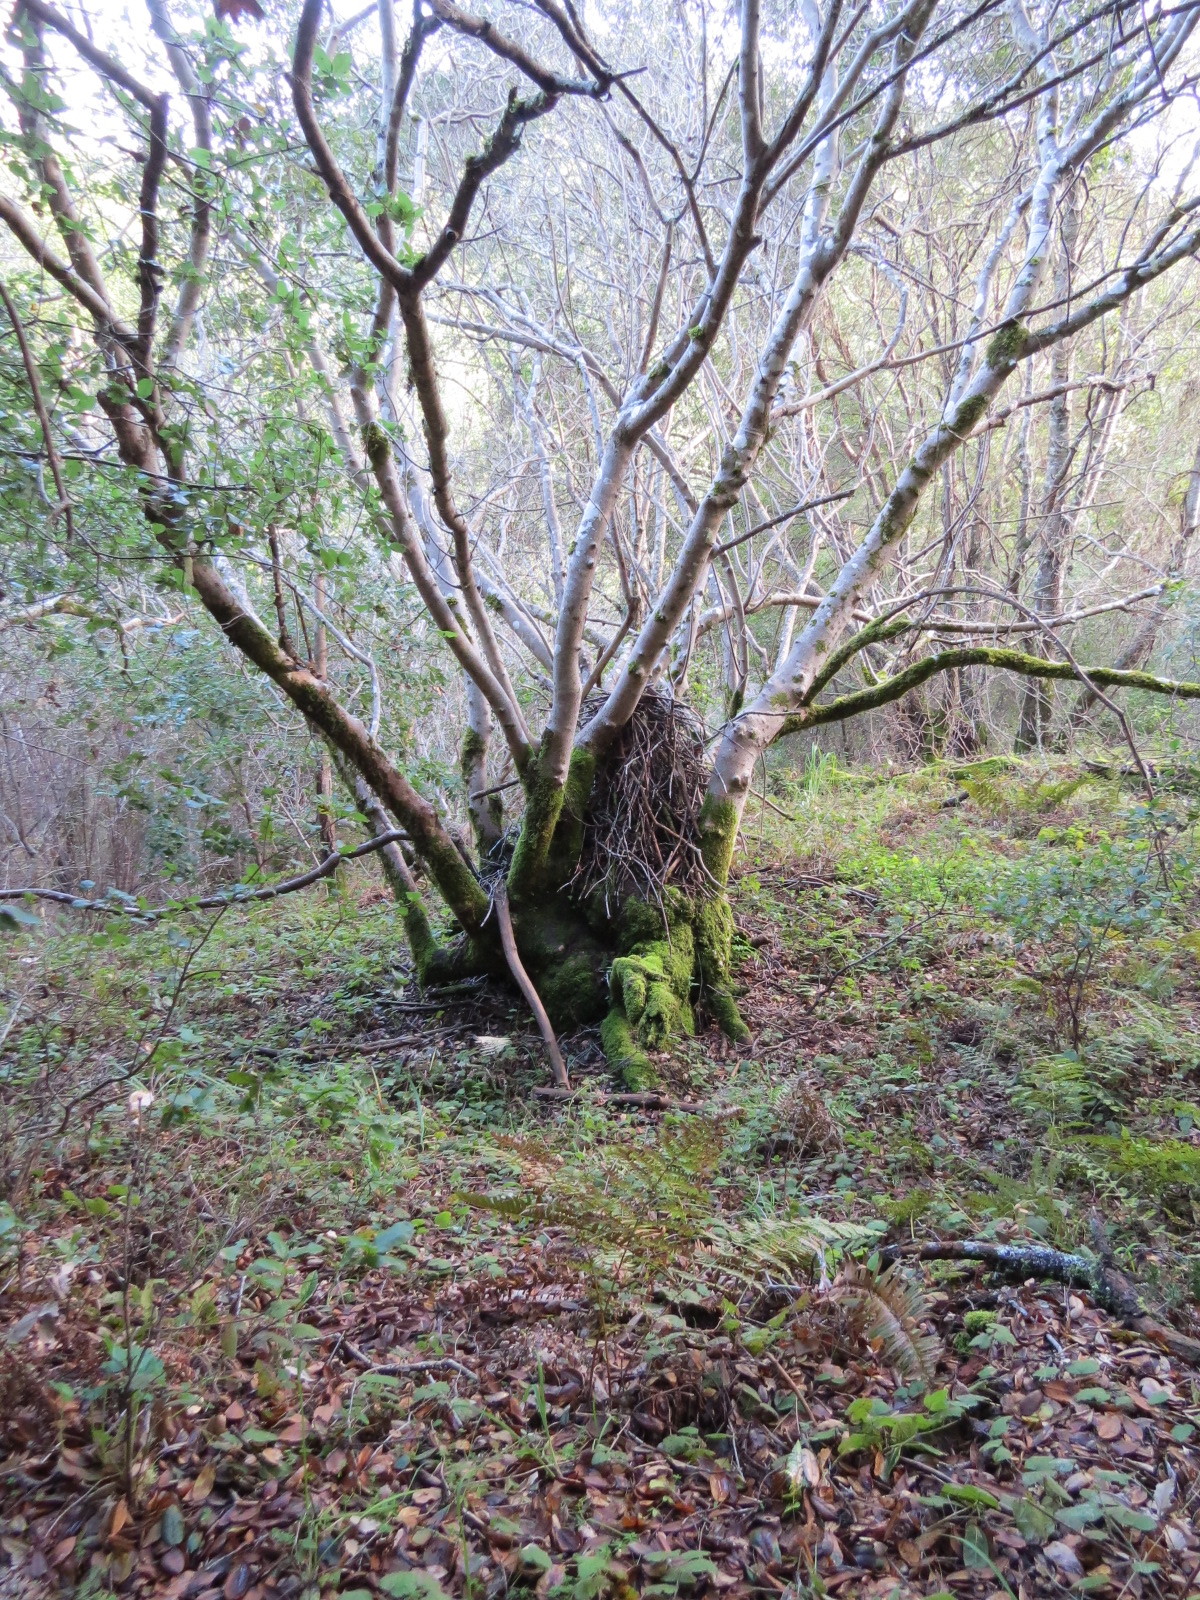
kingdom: Animalia
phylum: Chordata
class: Mammalia
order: Rodentia
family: Cricetidae
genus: Neotoma
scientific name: Neotoma fuscipes
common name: Dusky-footed woodrat
